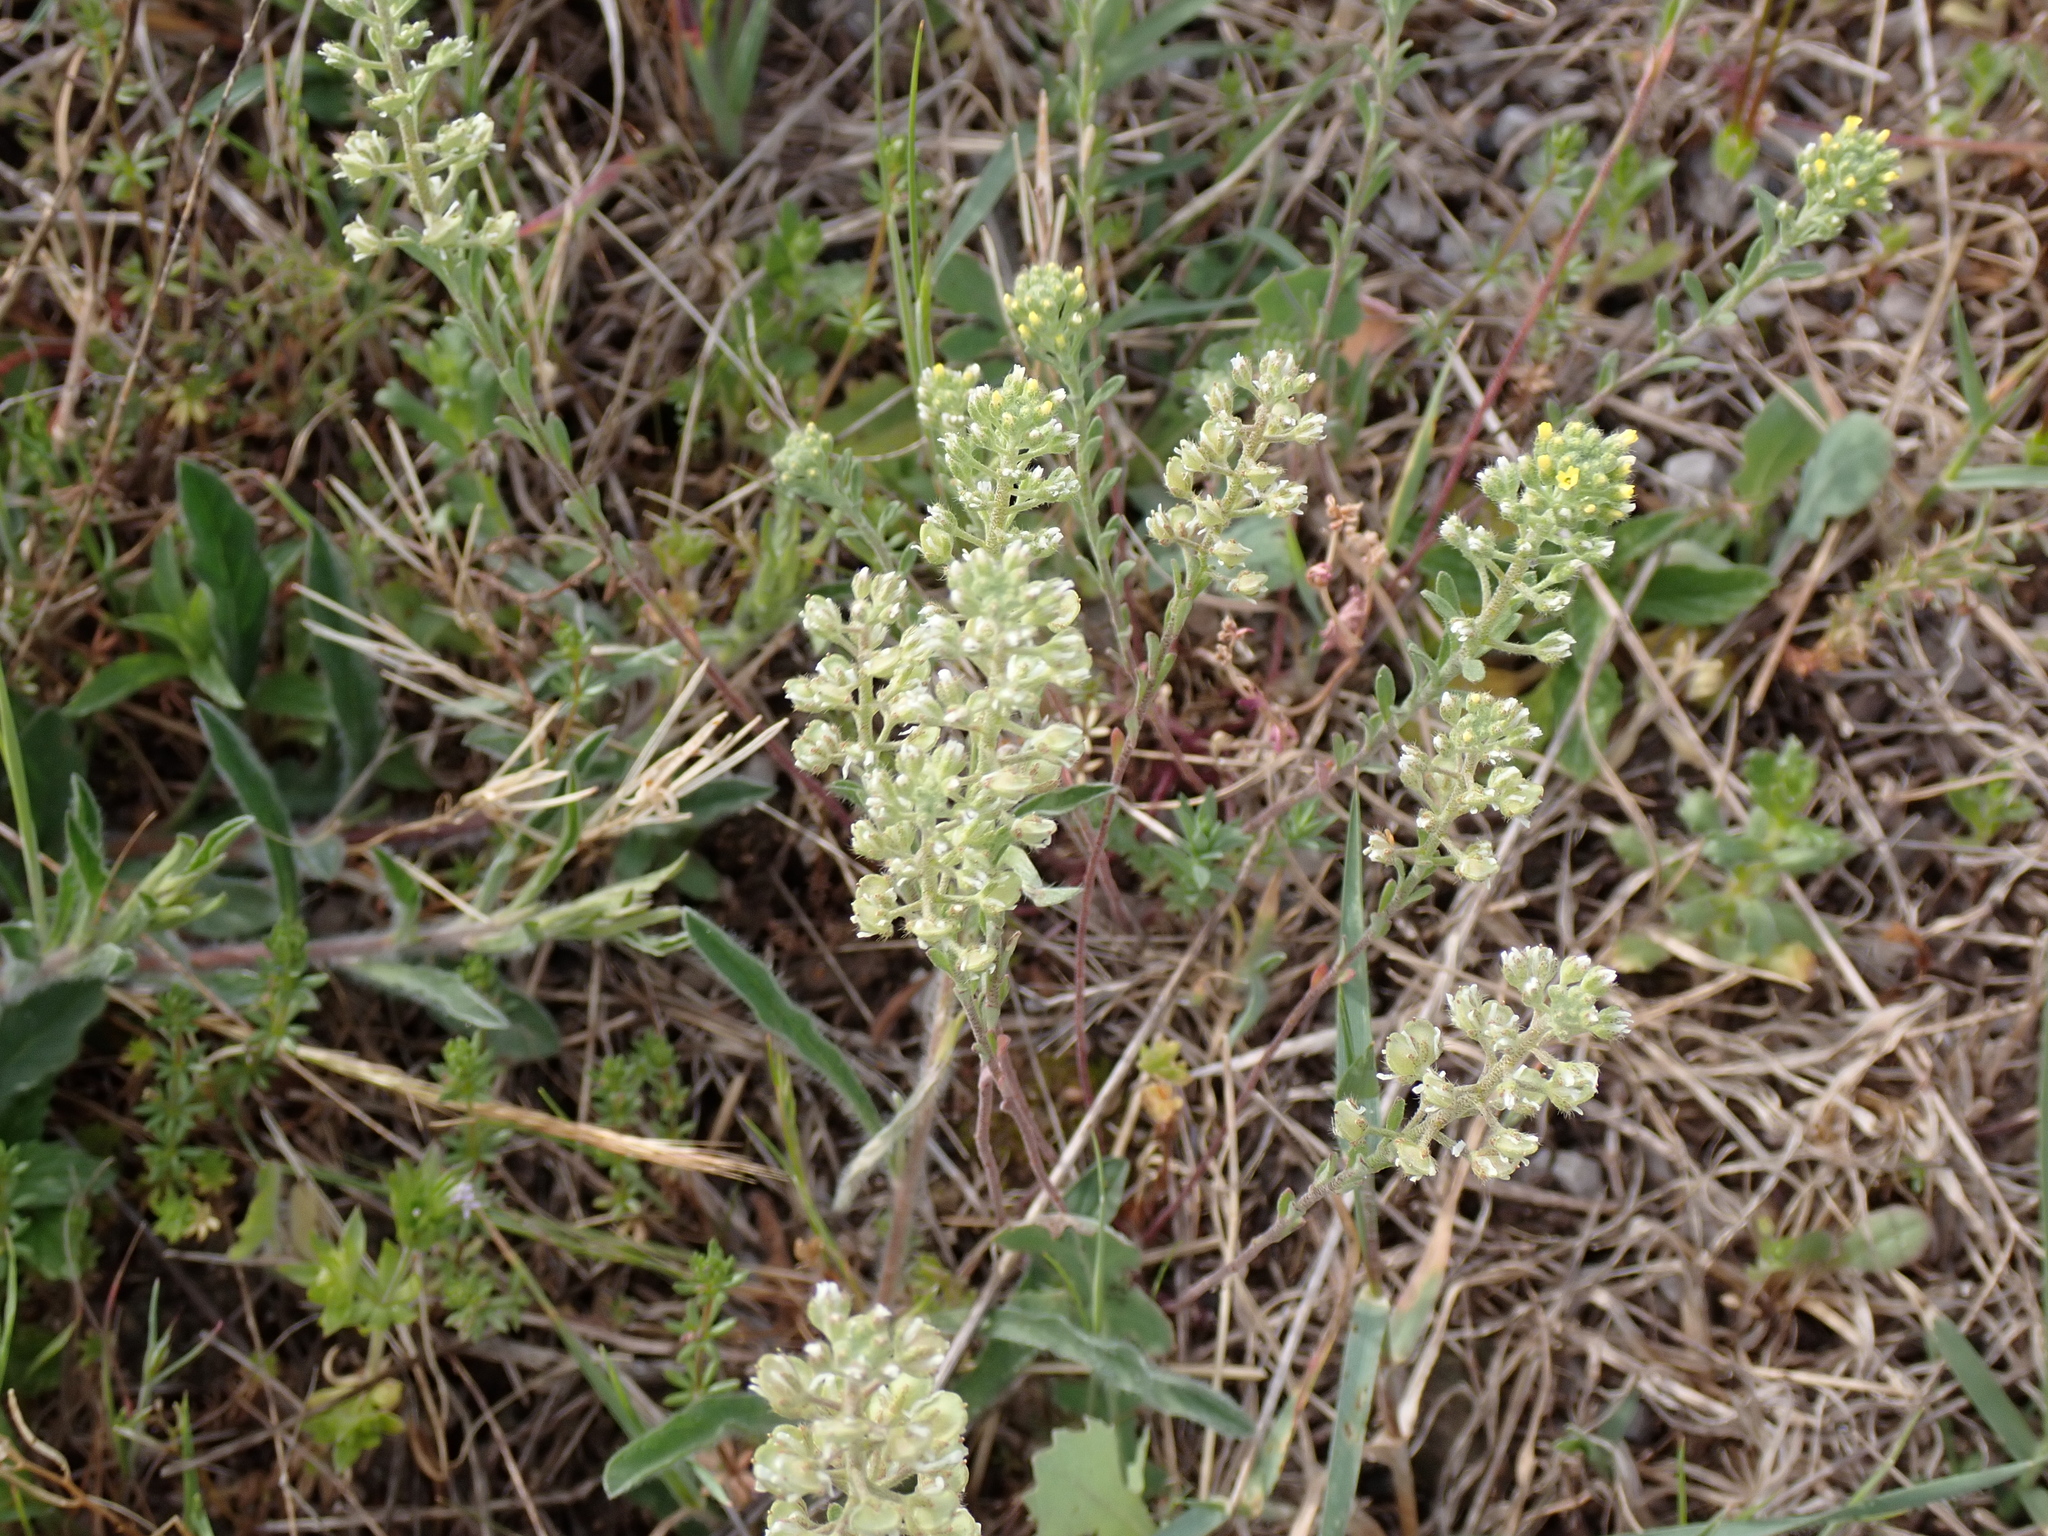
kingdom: Plantae
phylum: Tracheophyta
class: Magnoliopsida
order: Brassicales
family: Brassicaceae
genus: Alyssum
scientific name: Alyssum alyssoides
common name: Small alison
